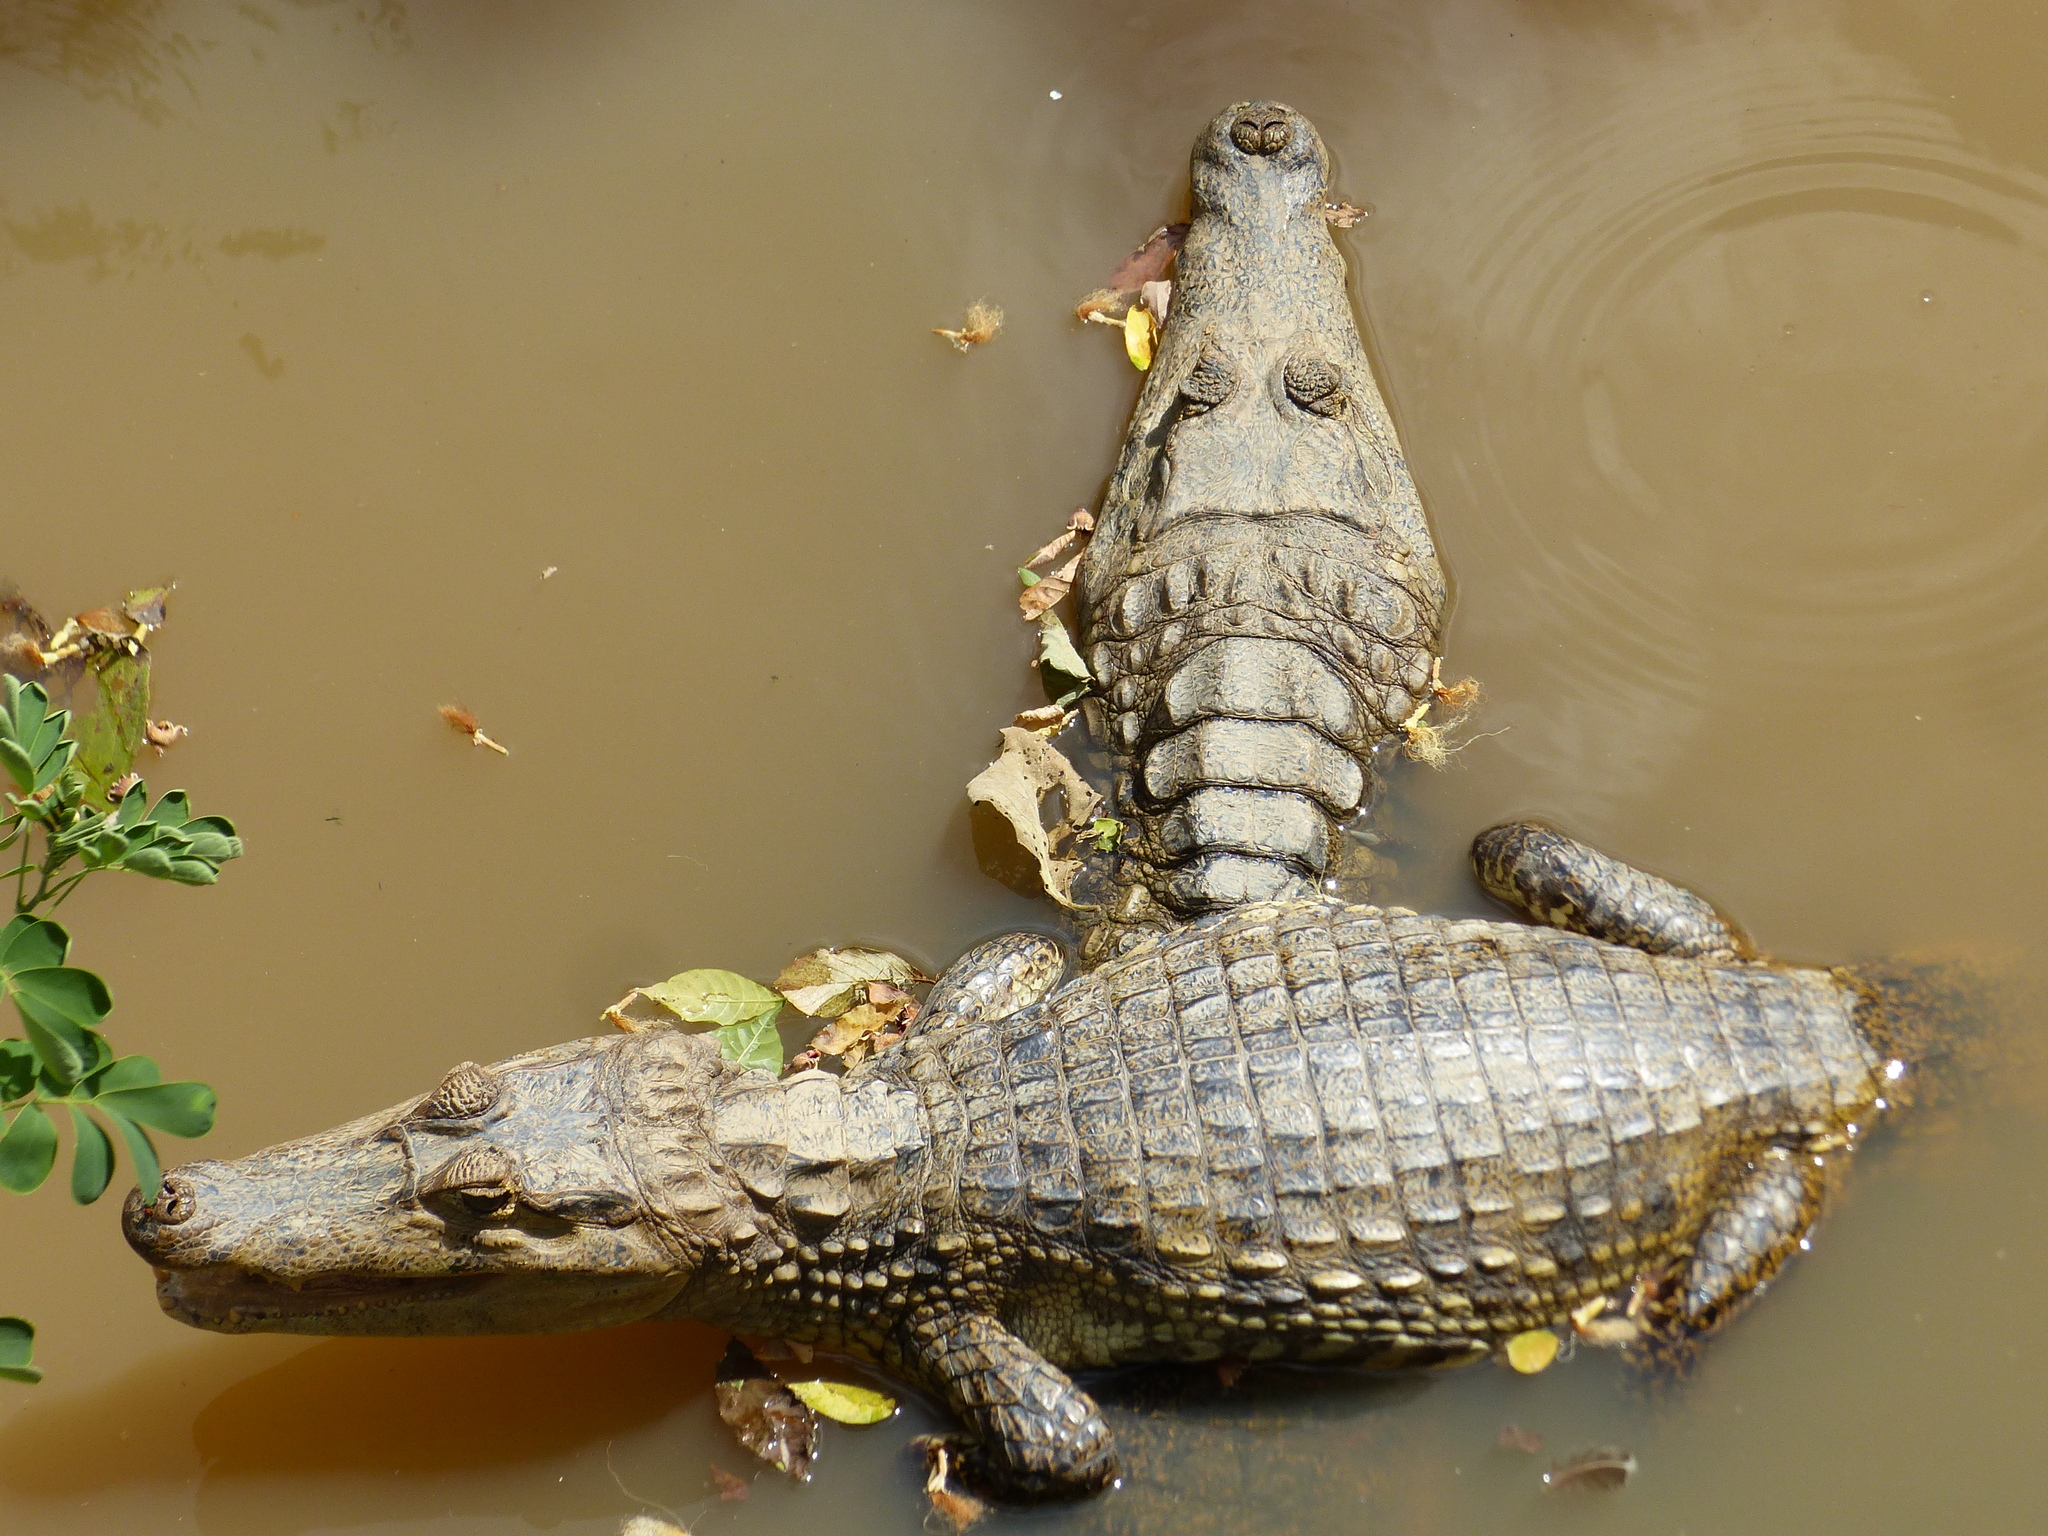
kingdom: Animalia
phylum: Chordata
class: Crocodylia
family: Alligatoridae
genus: Caiman
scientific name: Caiman crocodilus
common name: Common caiman
